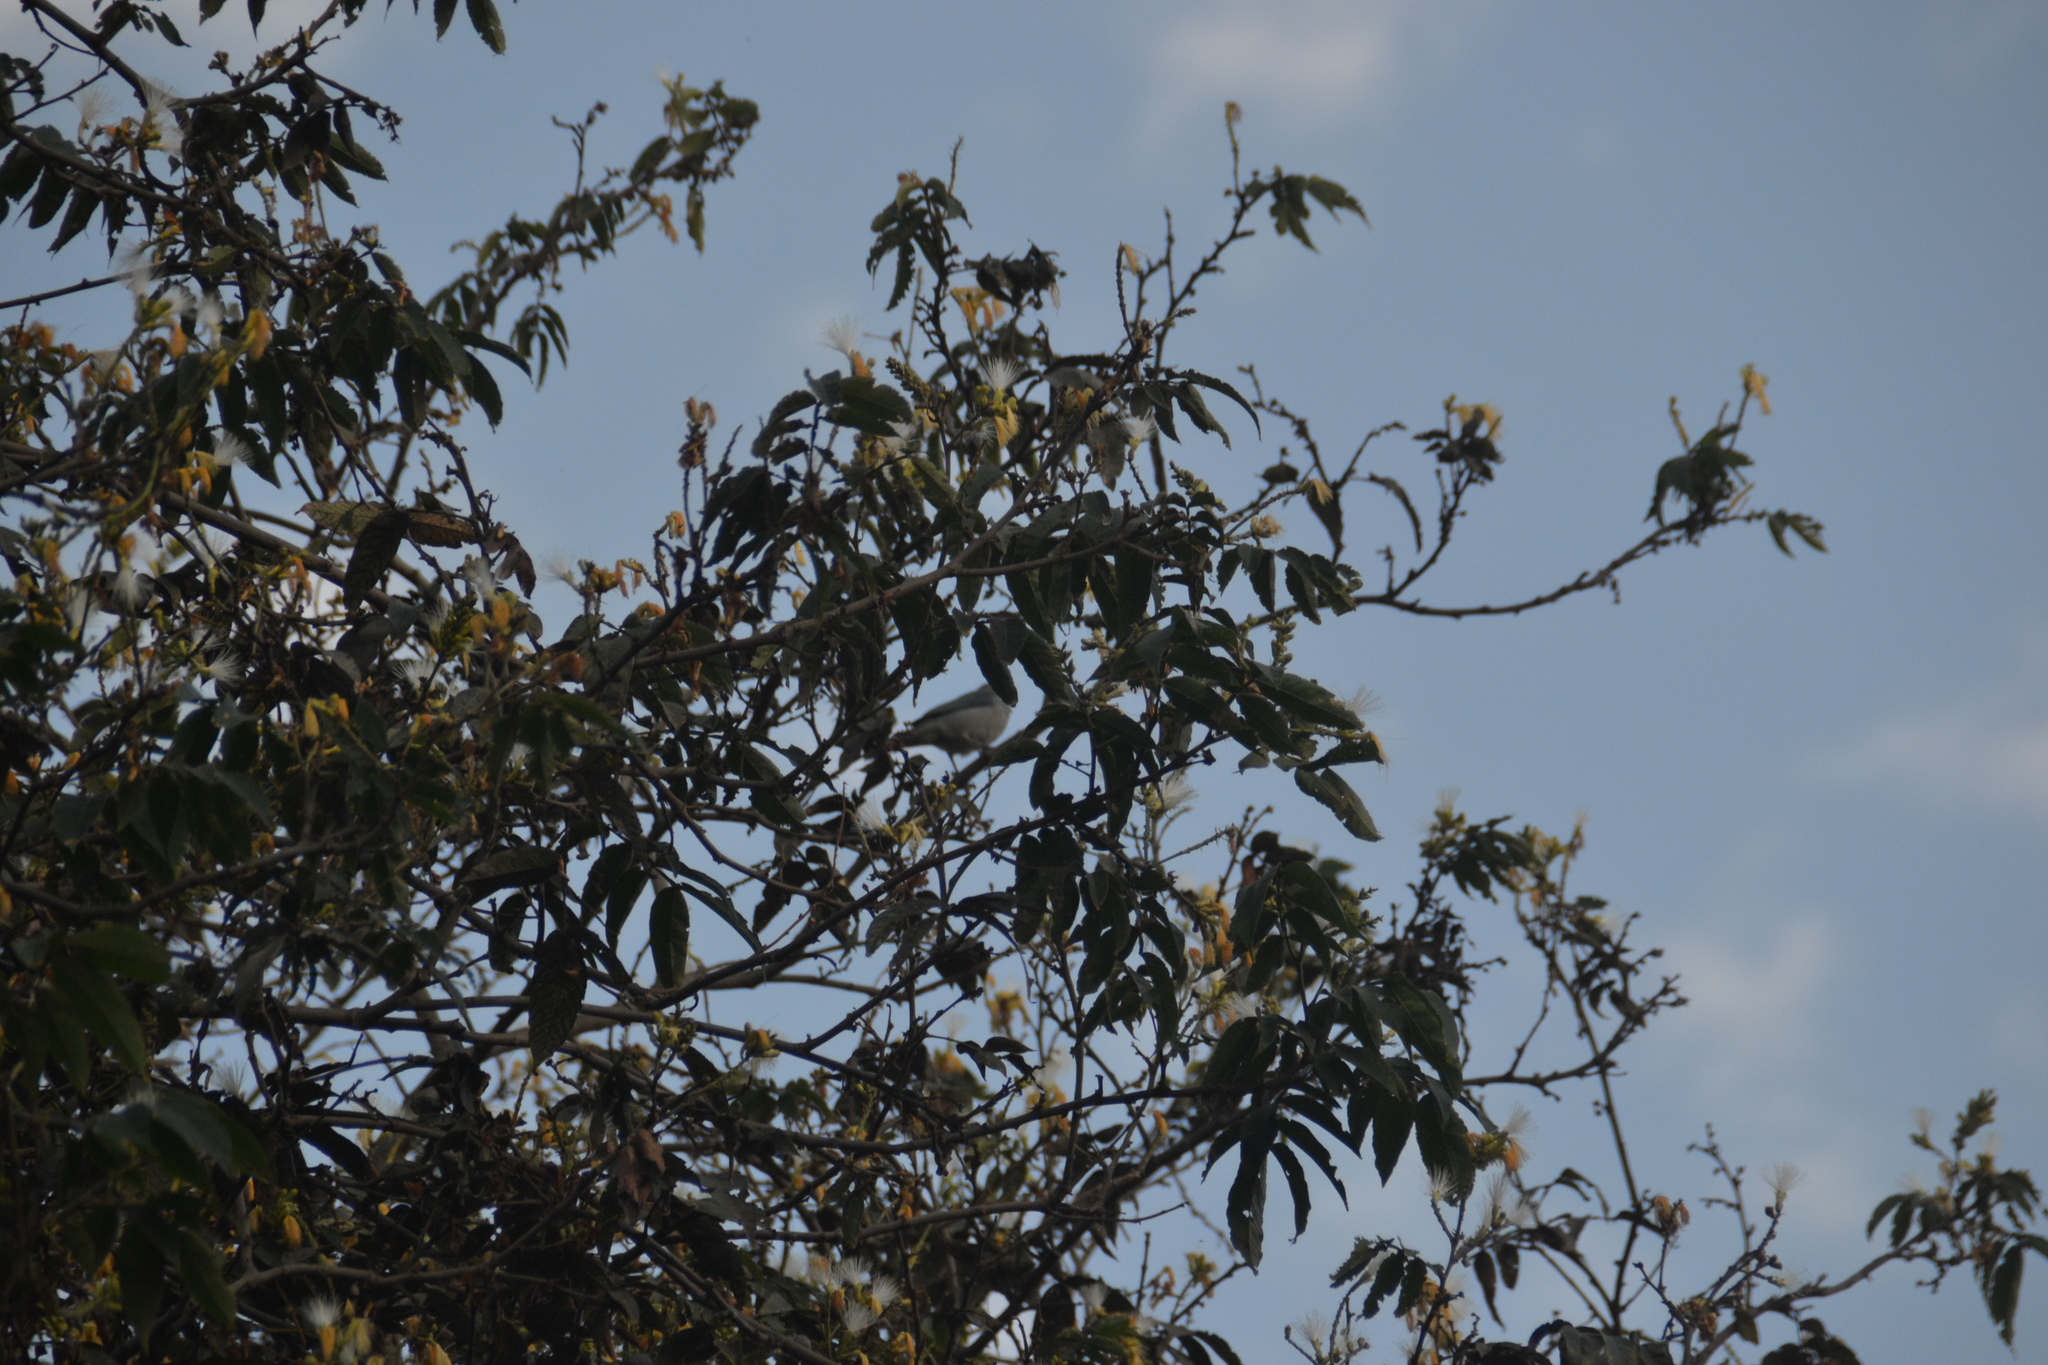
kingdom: Animalia
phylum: Chordata
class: Aves
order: Passeriformes
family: Thraupidae
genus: Thraupis
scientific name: Thraupis episcopus
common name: Blue-grey tanager
